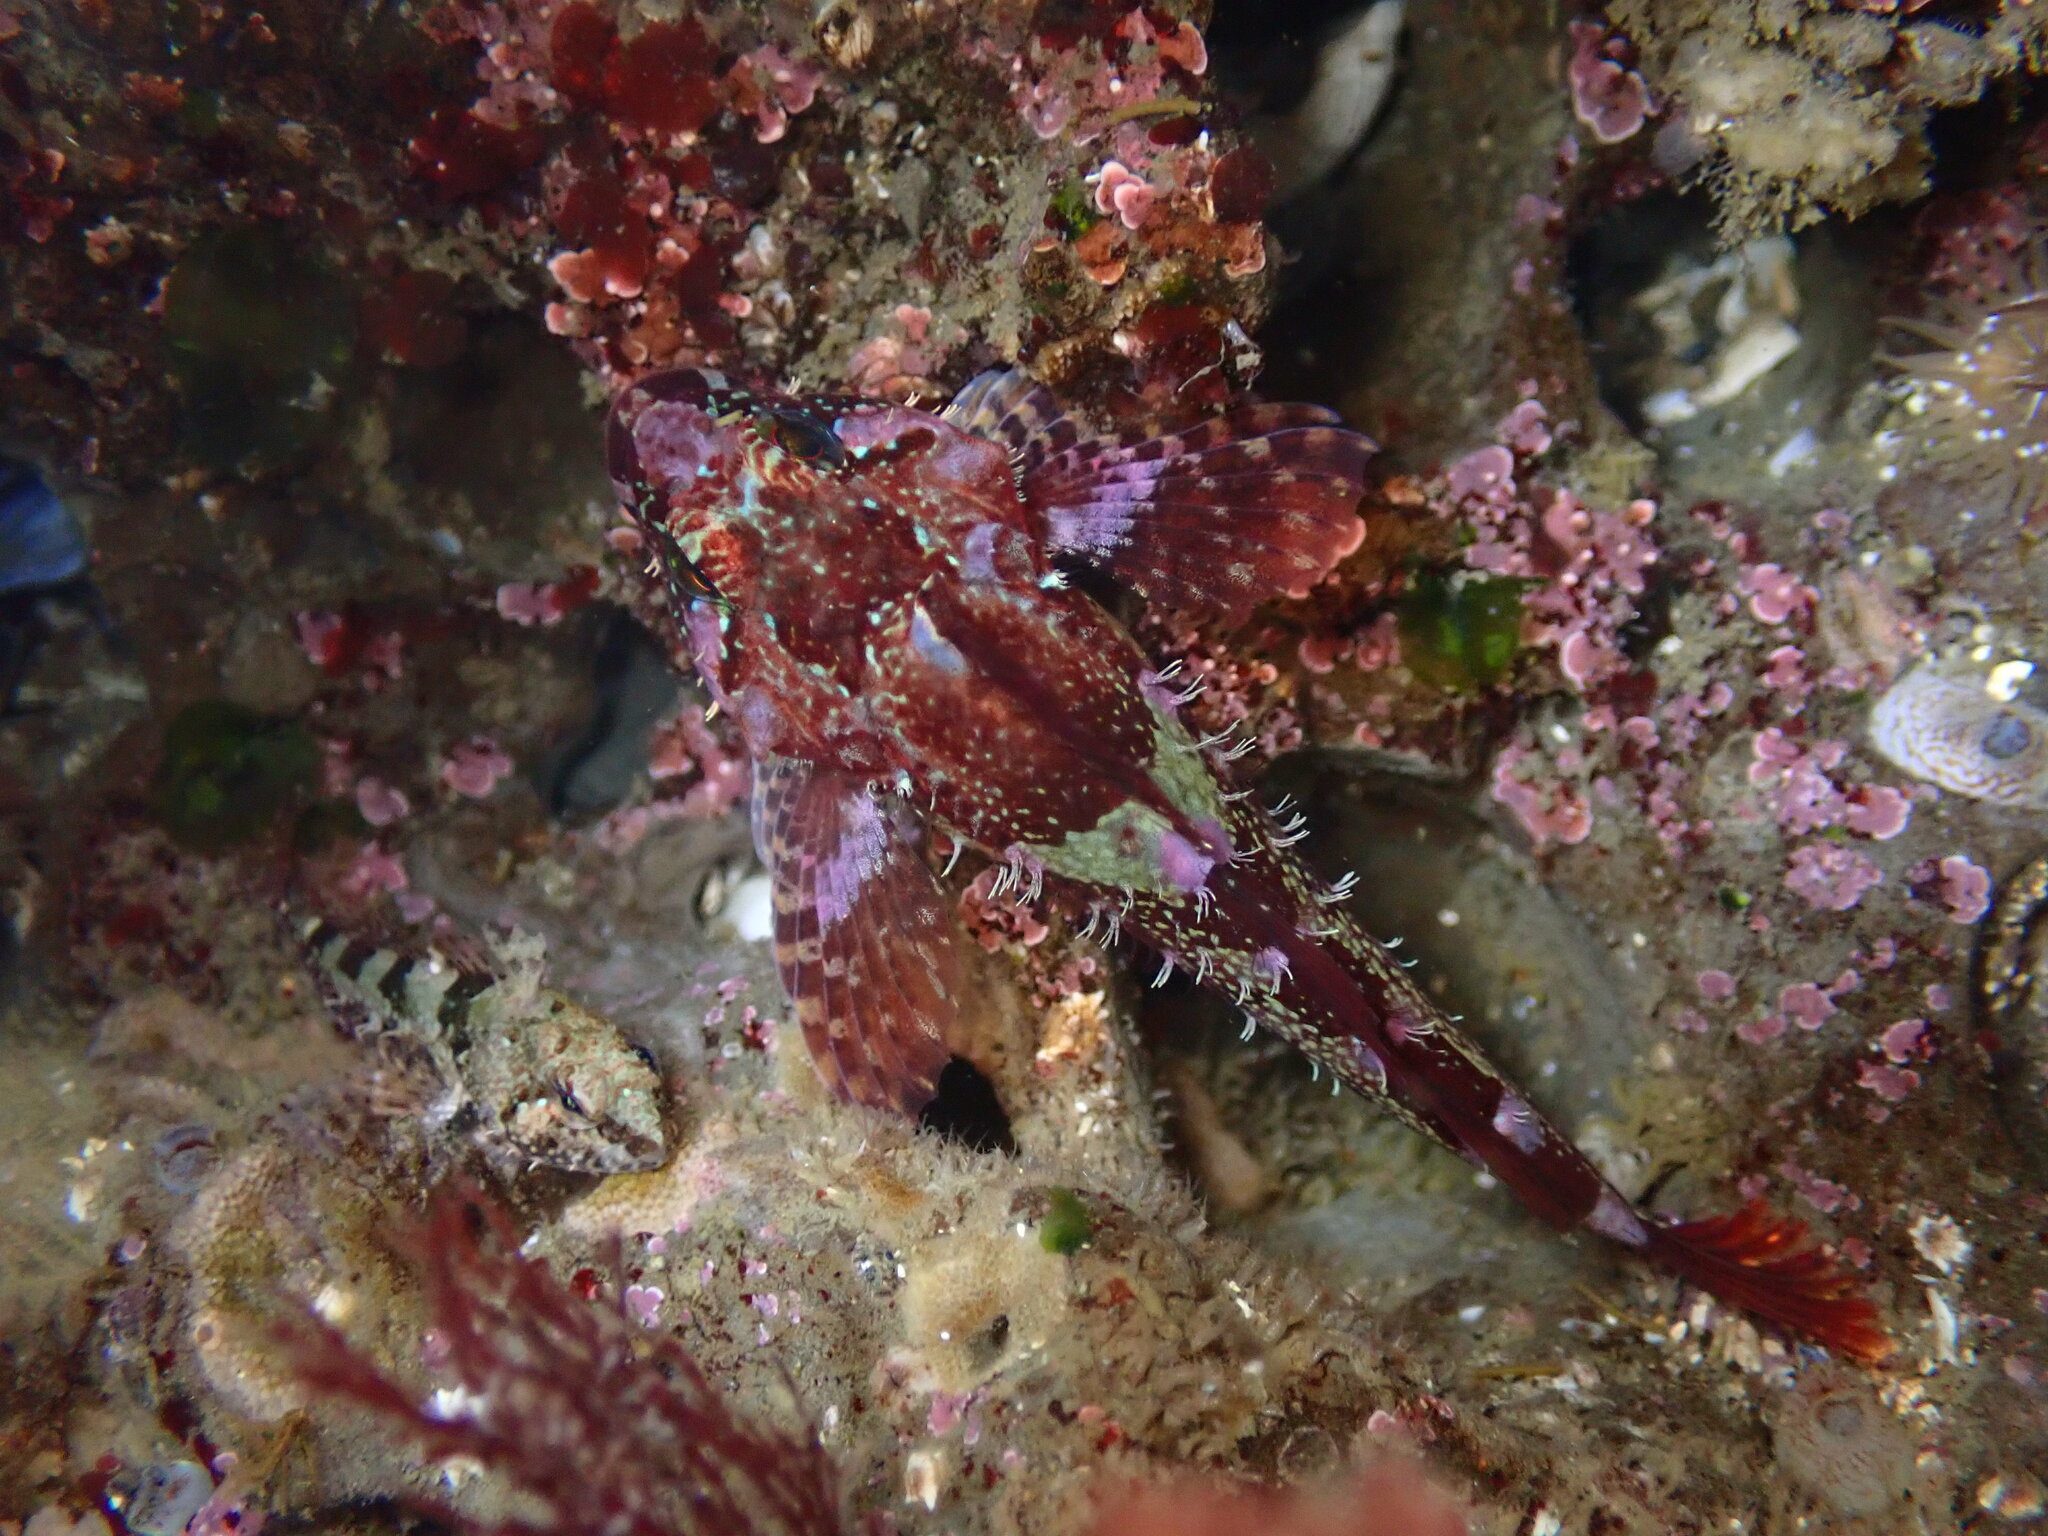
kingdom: Animalia
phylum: Chordata
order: Scorpaeniformes
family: Cottidae
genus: Oligocottus
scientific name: Oligocottus rubellio
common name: Rosy sculpin
